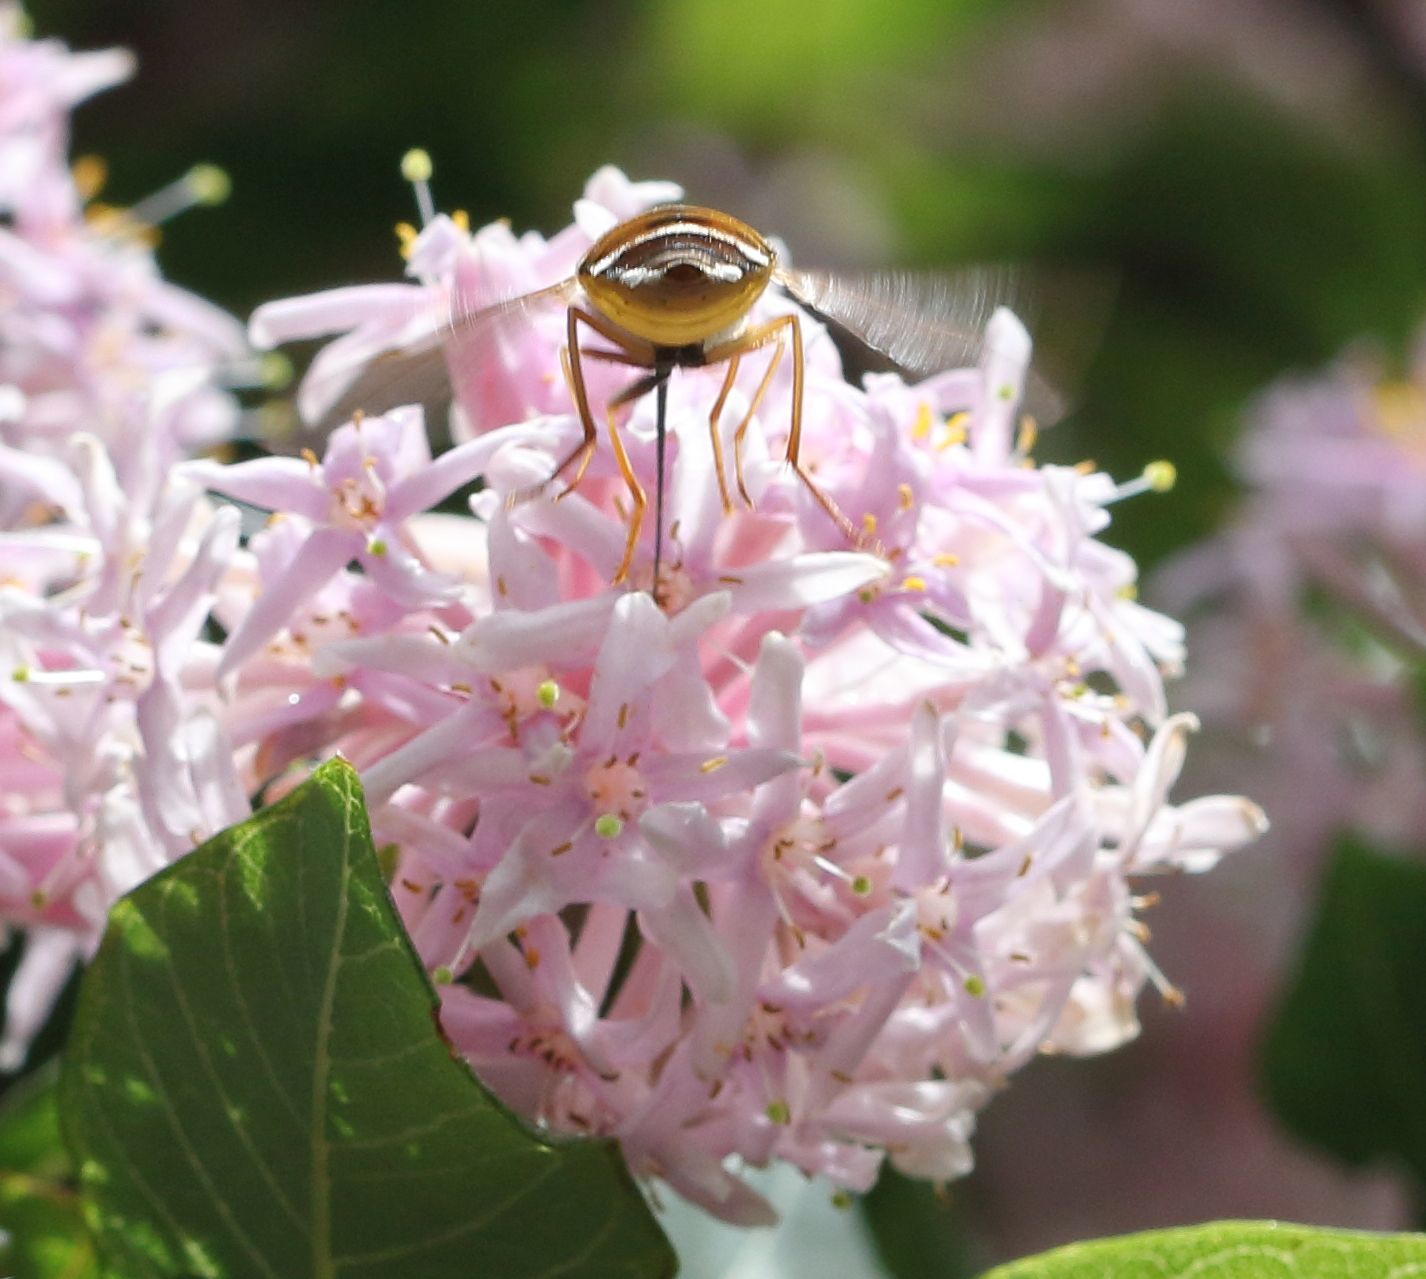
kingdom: Plantae
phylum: Tracheophyta
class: Magnoliopsida
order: Malvales
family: Thymelaeaceae
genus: Dais
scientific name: Dais cotinifolia
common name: Pompon tree
